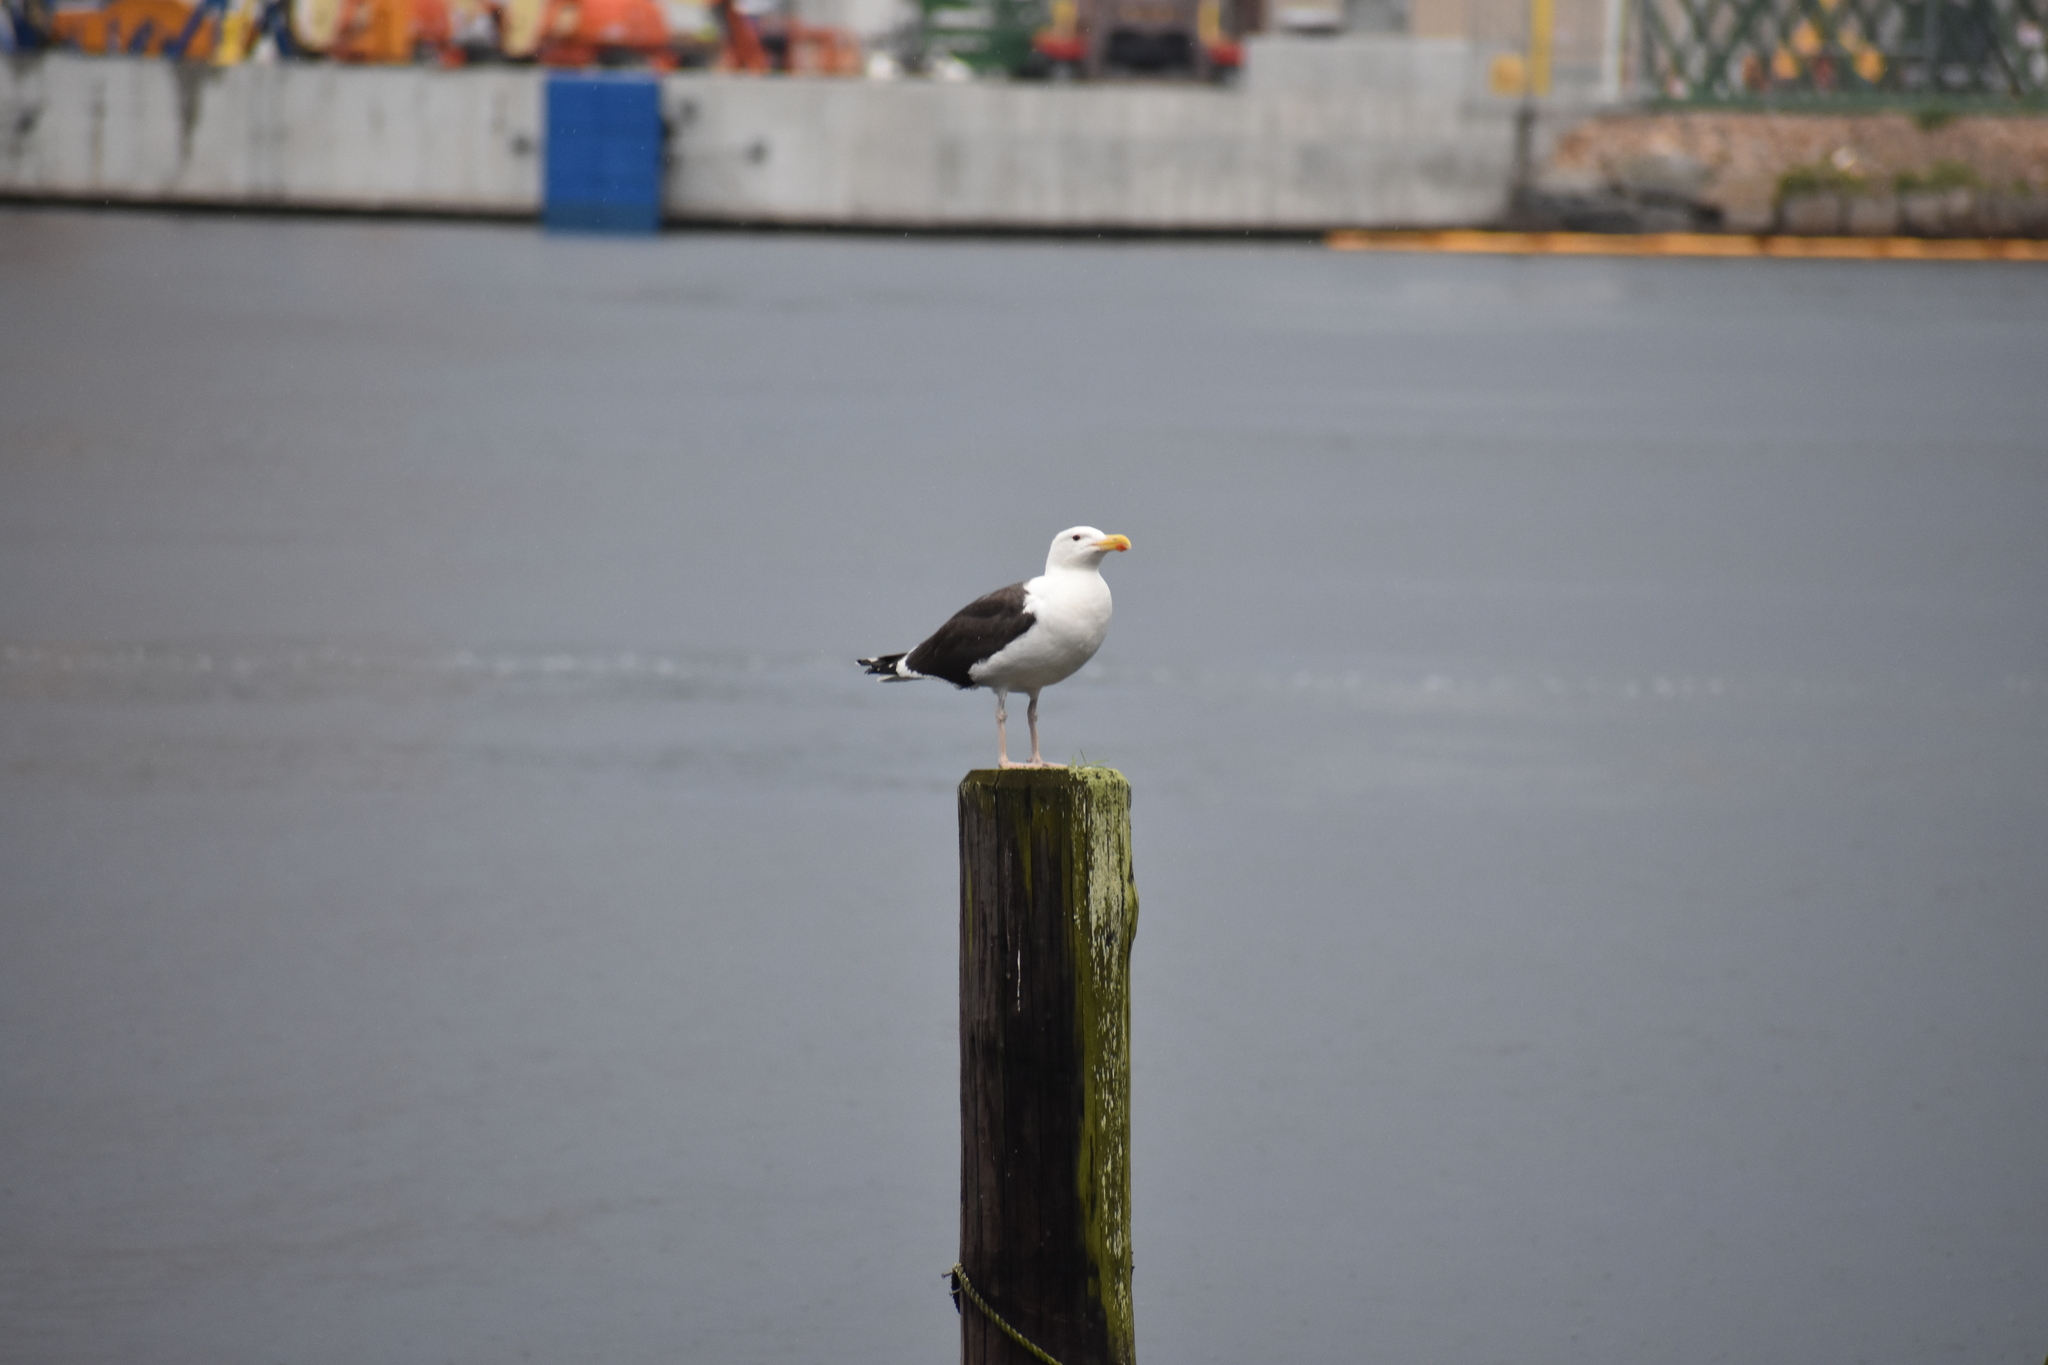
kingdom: Animalia
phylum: Chordata
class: Aves
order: Charadriiformes
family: Laridae
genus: Larus
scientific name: Larus marinus
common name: Great black-backed gull
